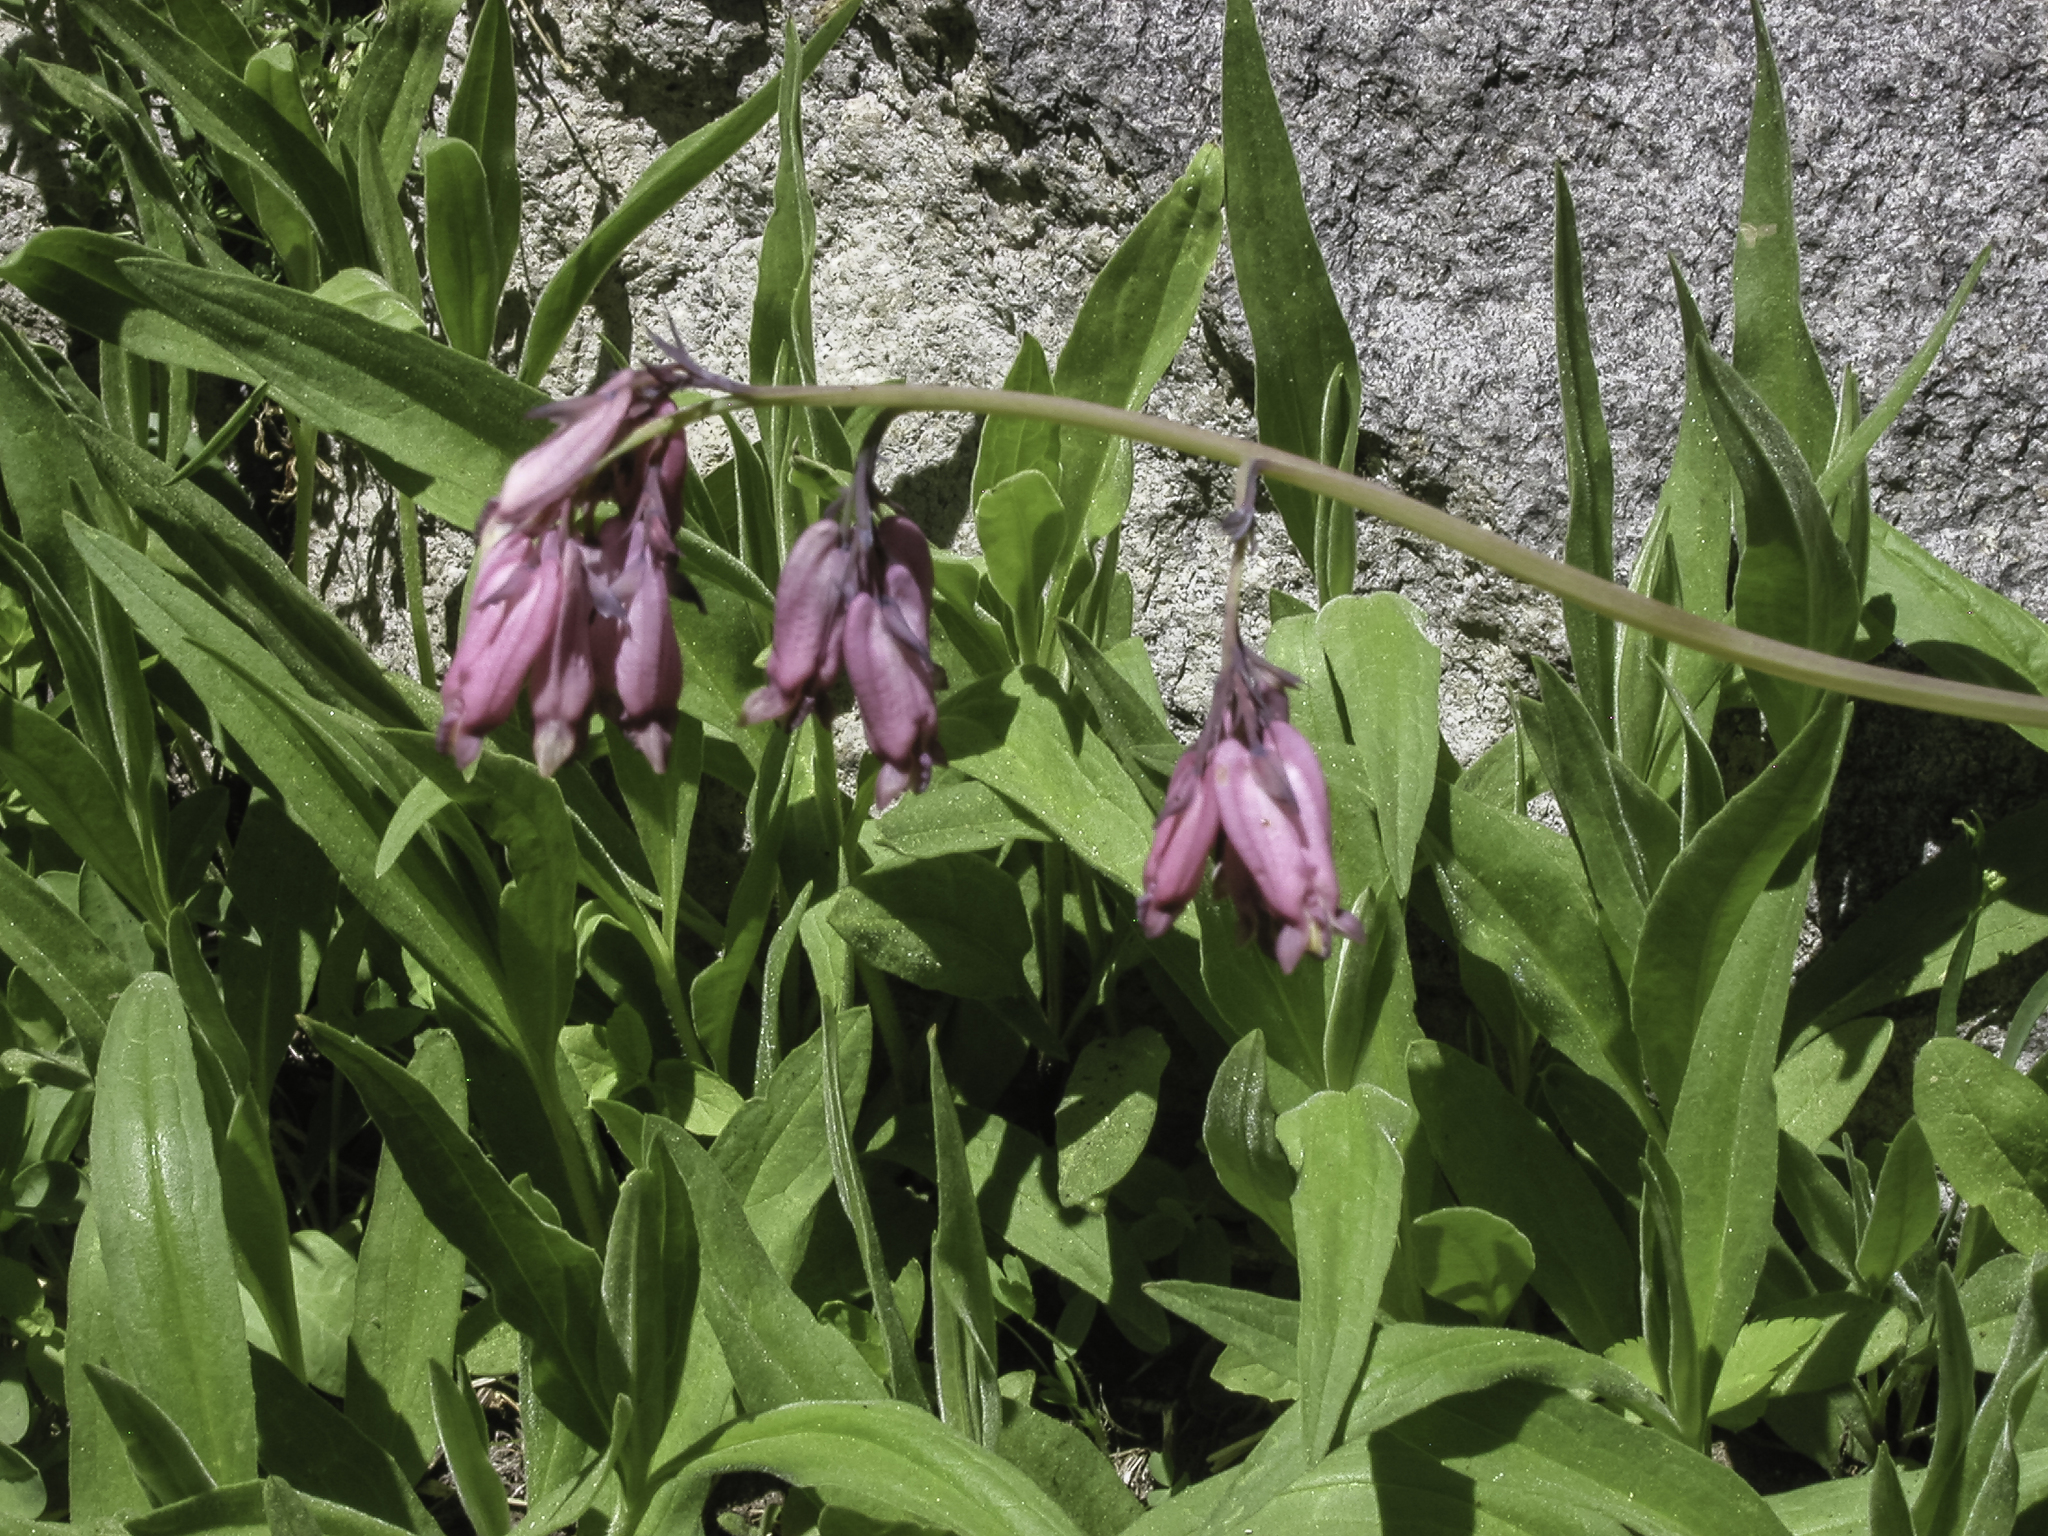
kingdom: Plantae
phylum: Tracheophyta
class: Magnoliopsida
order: Ranunculales
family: Papaveraceae
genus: Dicentra
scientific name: Dicentra formosa
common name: Bleeding-heart
